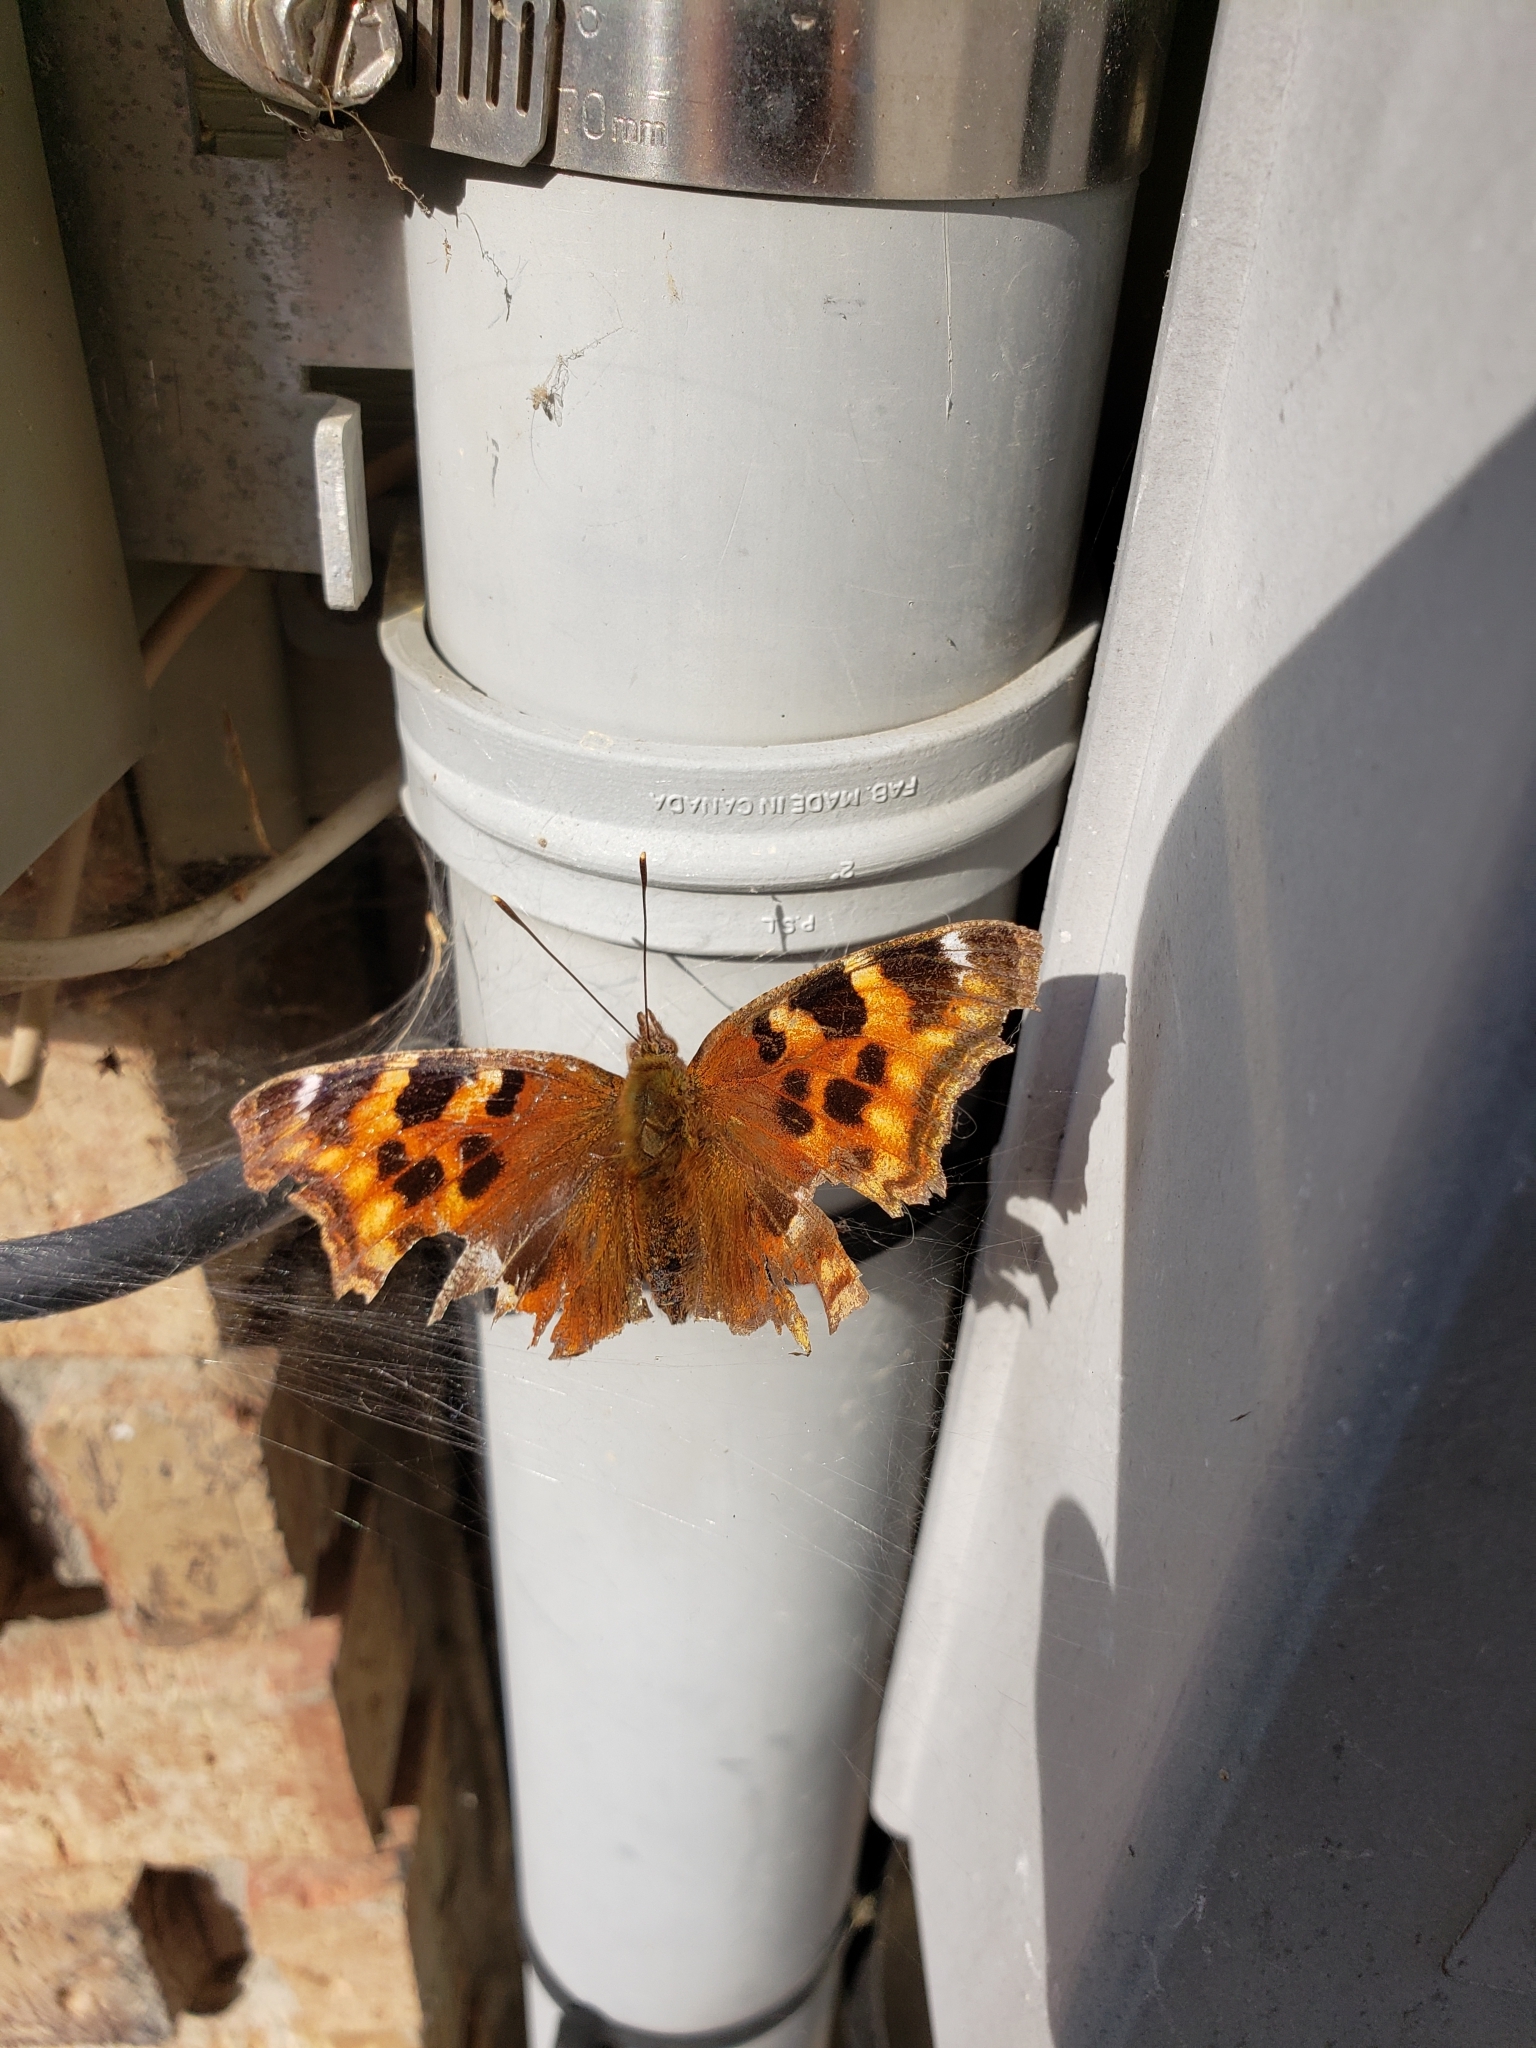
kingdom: Animalia
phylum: Arthropoda
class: Insecta
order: Lepidoptera
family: Nymphalidae
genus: Polygonia
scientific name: Polygonia vaualbum
